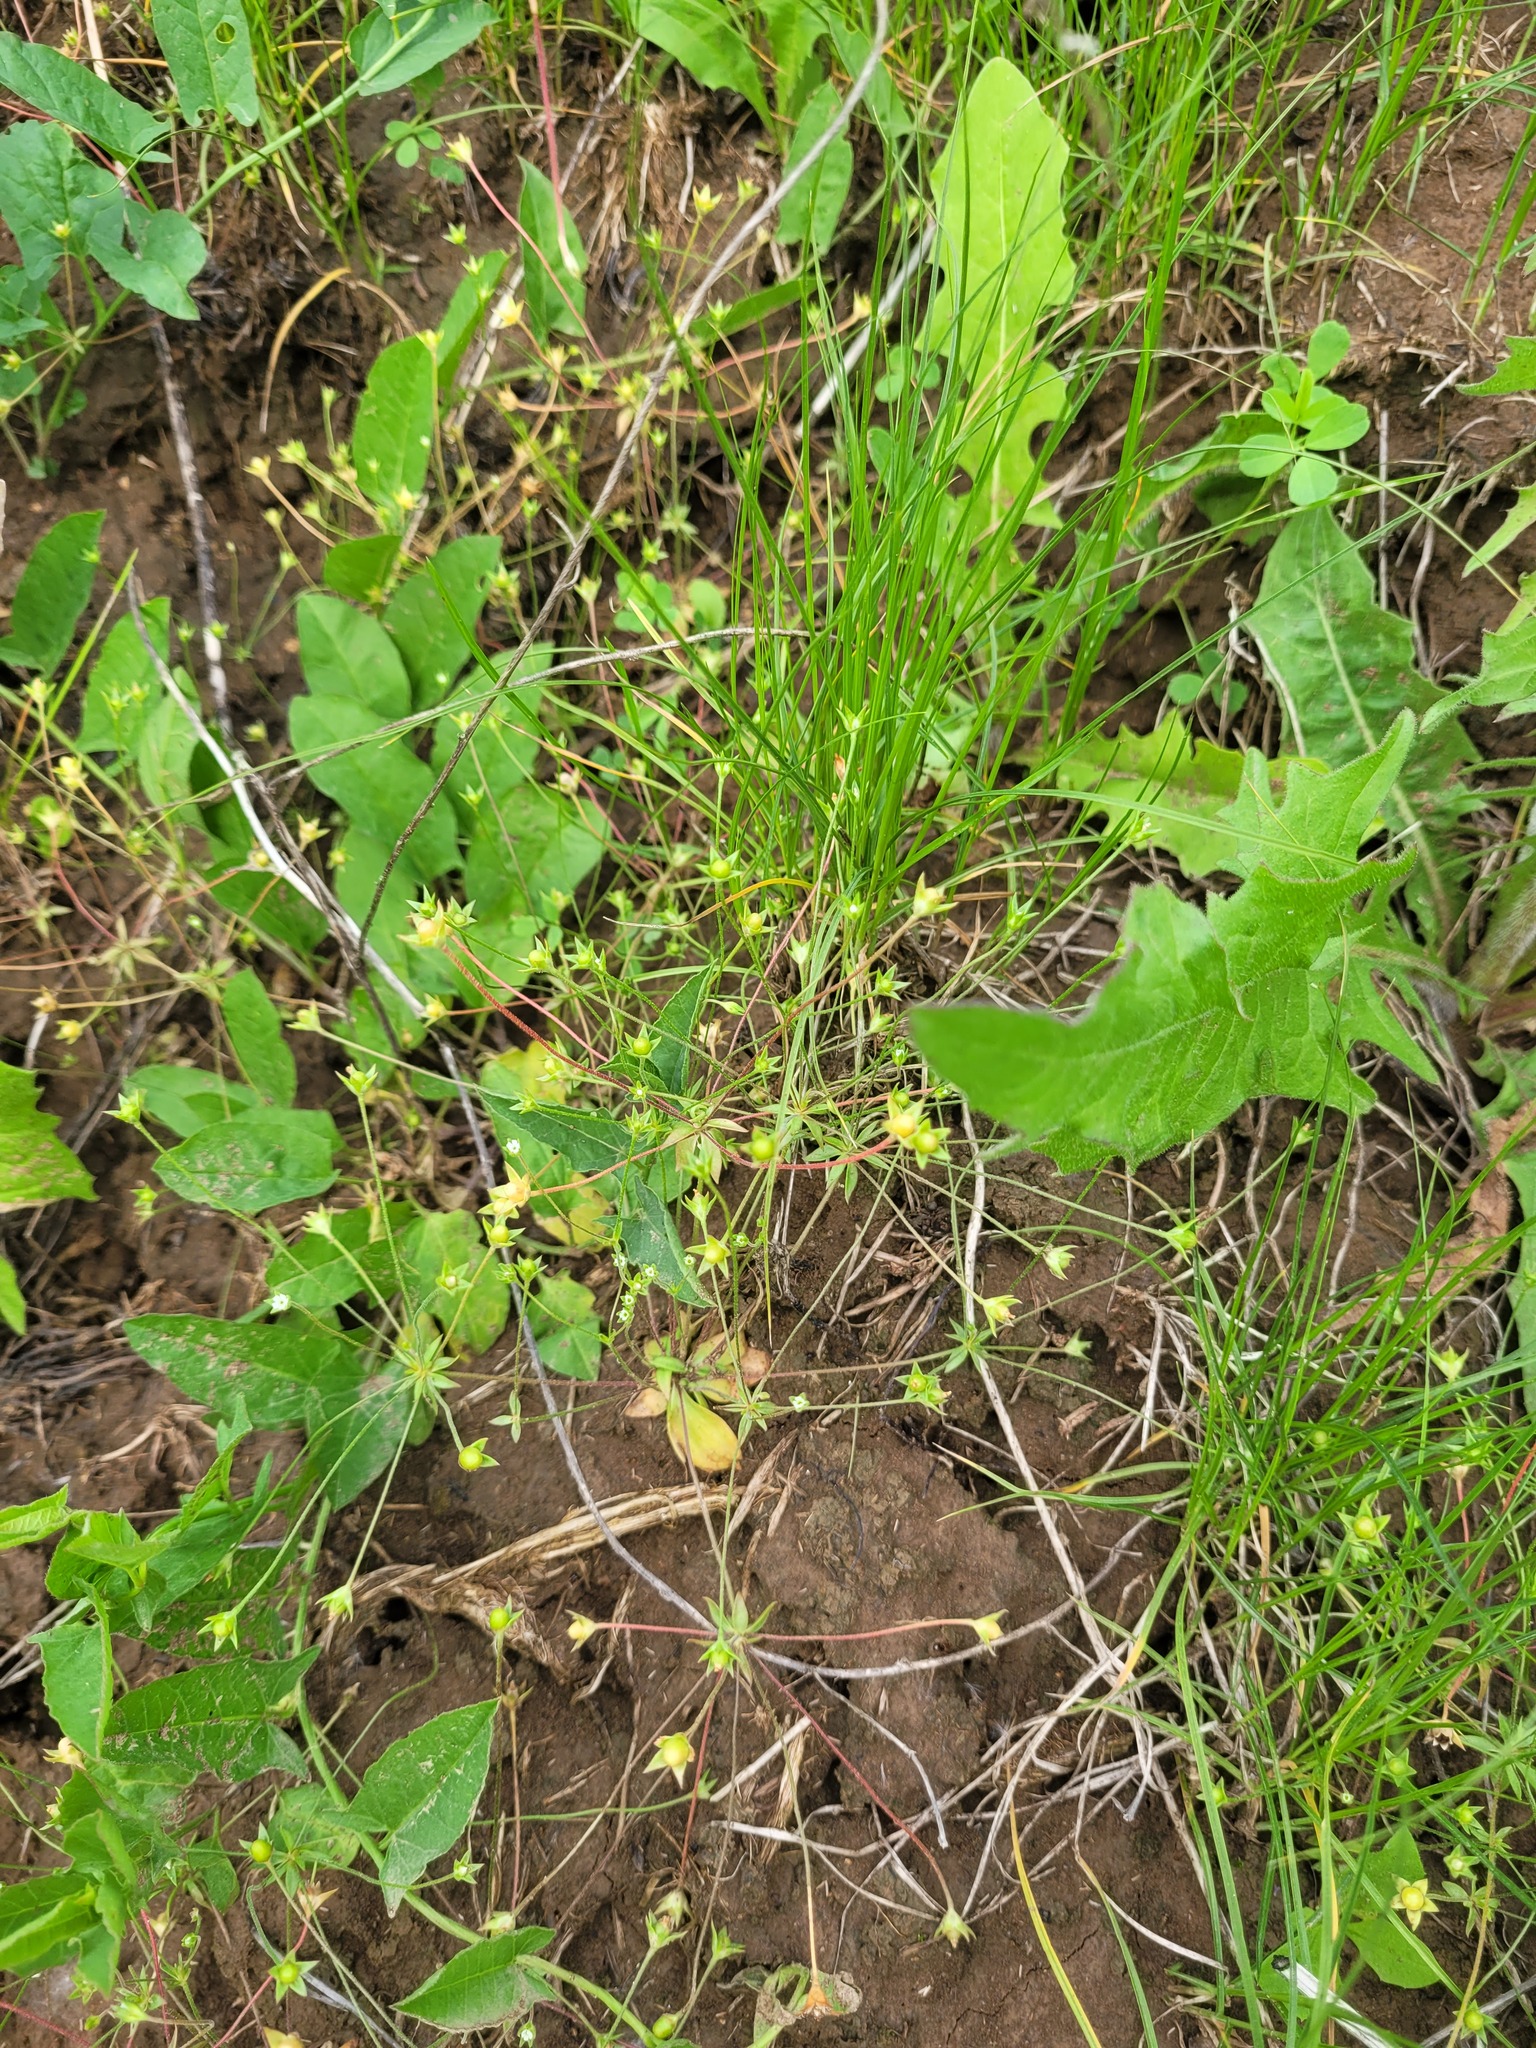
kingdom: Plantae
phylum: Tracheophyta
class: Magnoliopsida
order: Ericales
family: Primulaceae
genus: Androsace
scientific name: Androsace elongata
